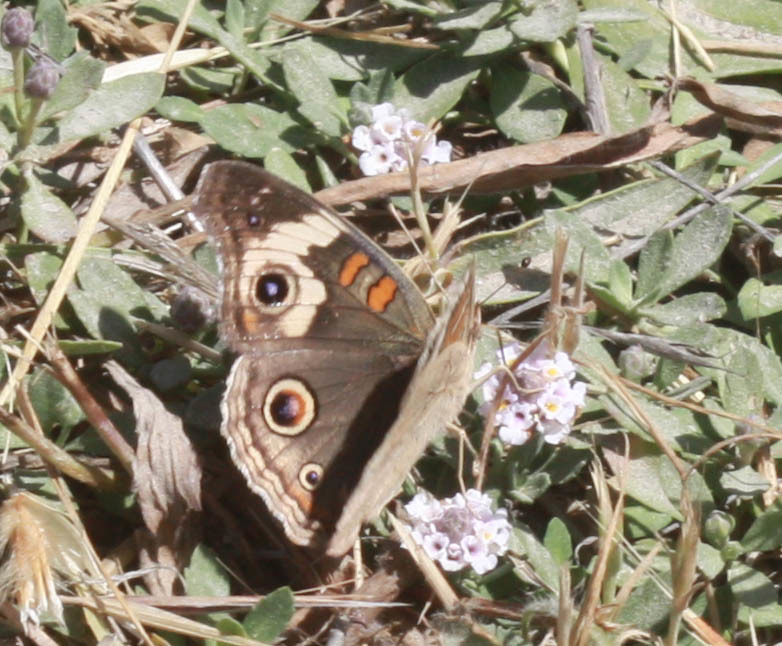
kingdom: Animalia
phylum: Arthropoda
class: Insecta
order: Lepidoptera
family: Nymphalidae
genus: Junonia
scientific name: Junonia grisea
